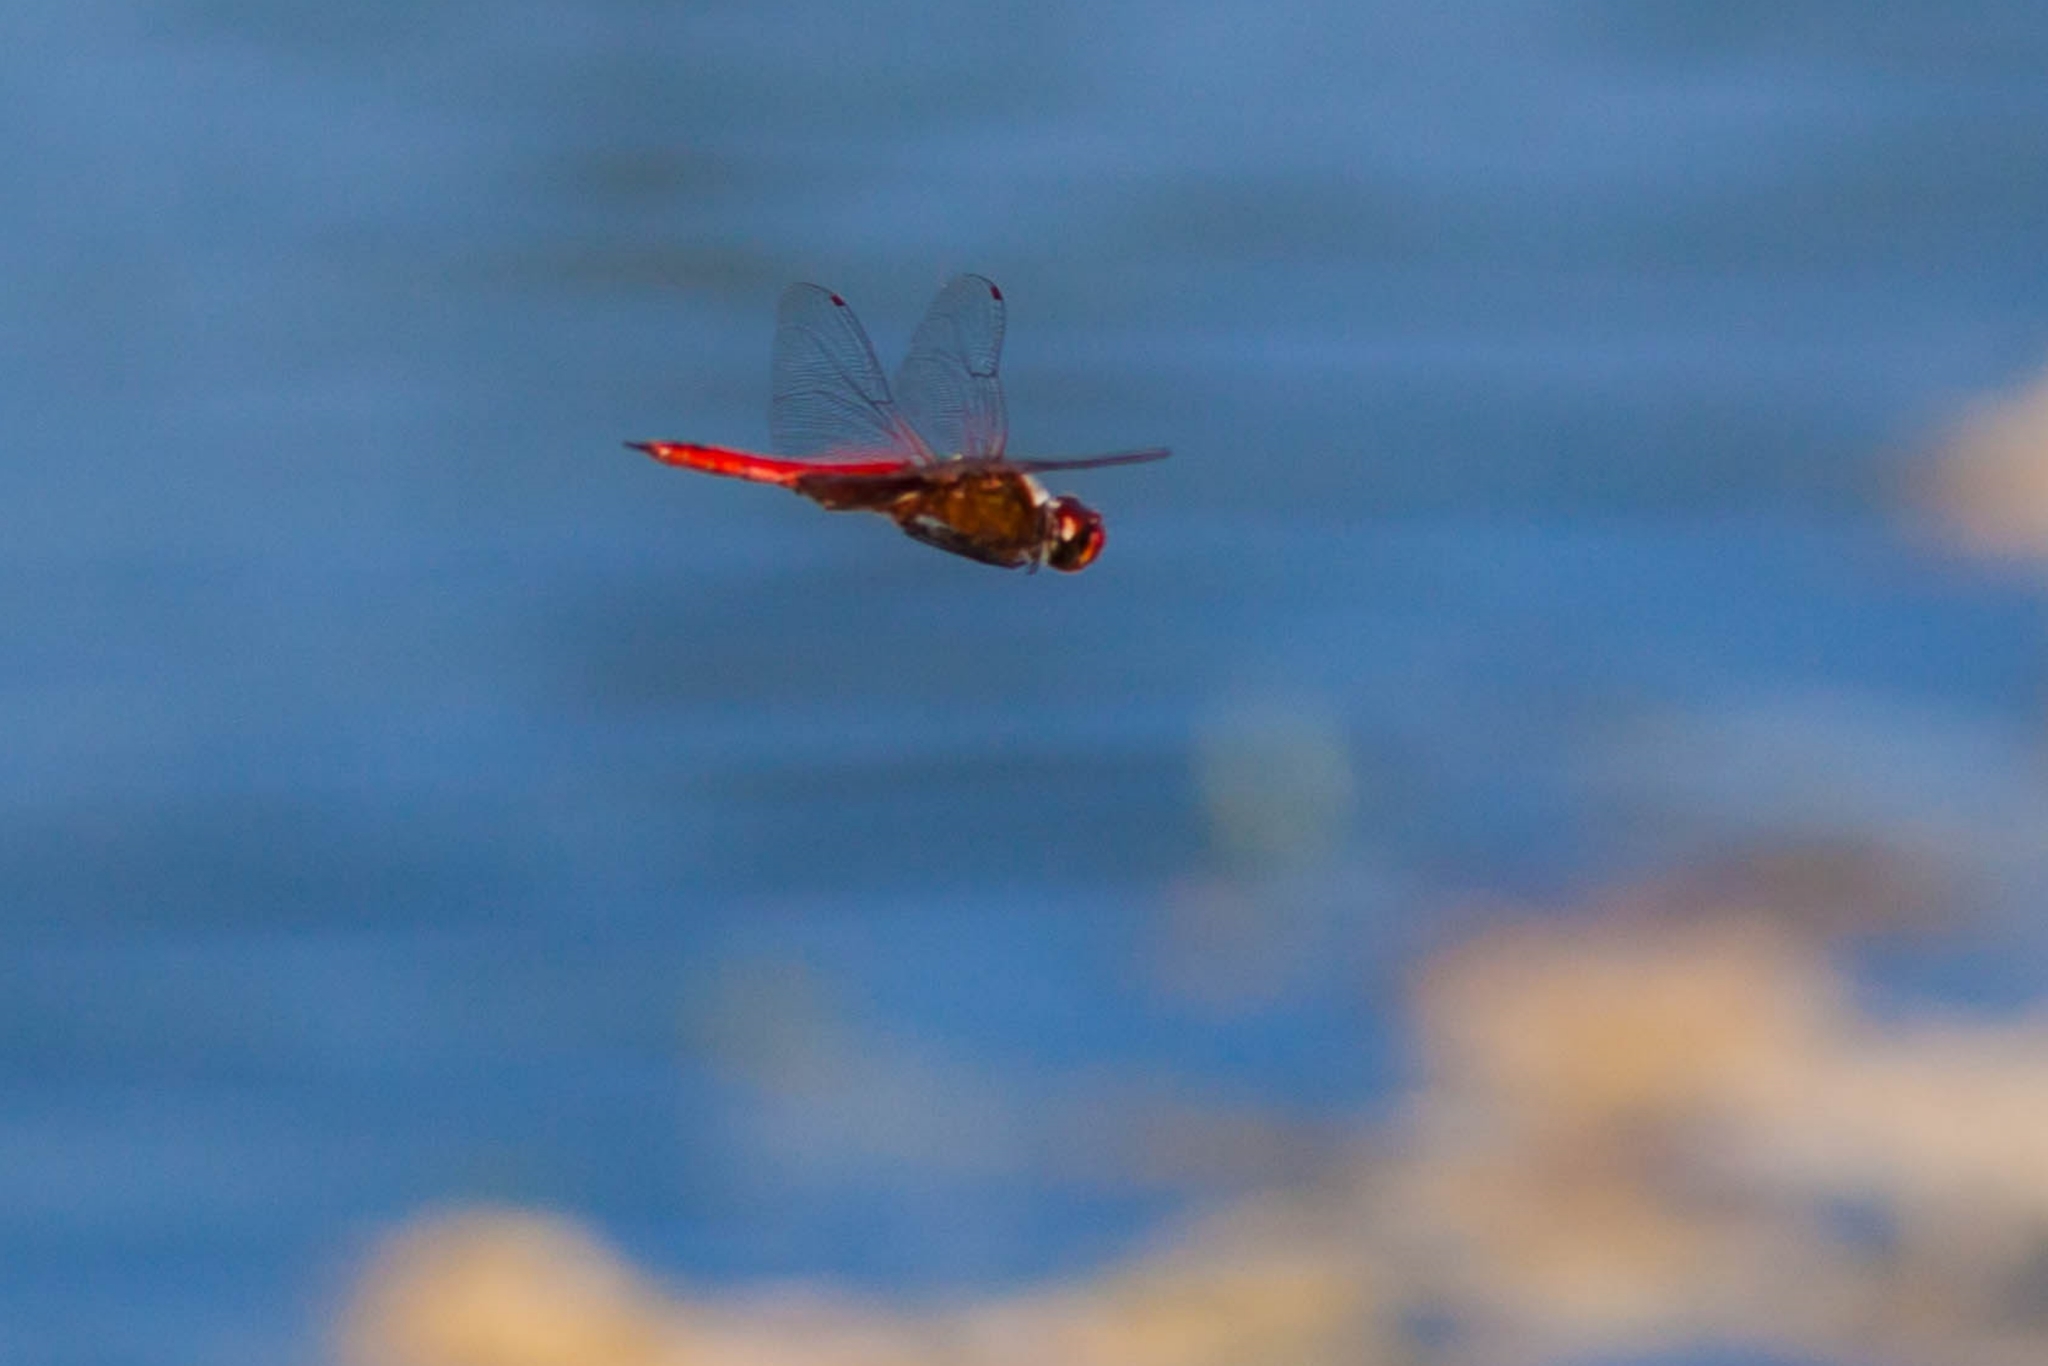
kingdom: Animalia
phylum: Arthropoda
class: Insecta
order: Odonata
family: Libellulidae
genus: Tramea
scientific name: Tramea abdominalis
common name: Vermilion saddlebags
